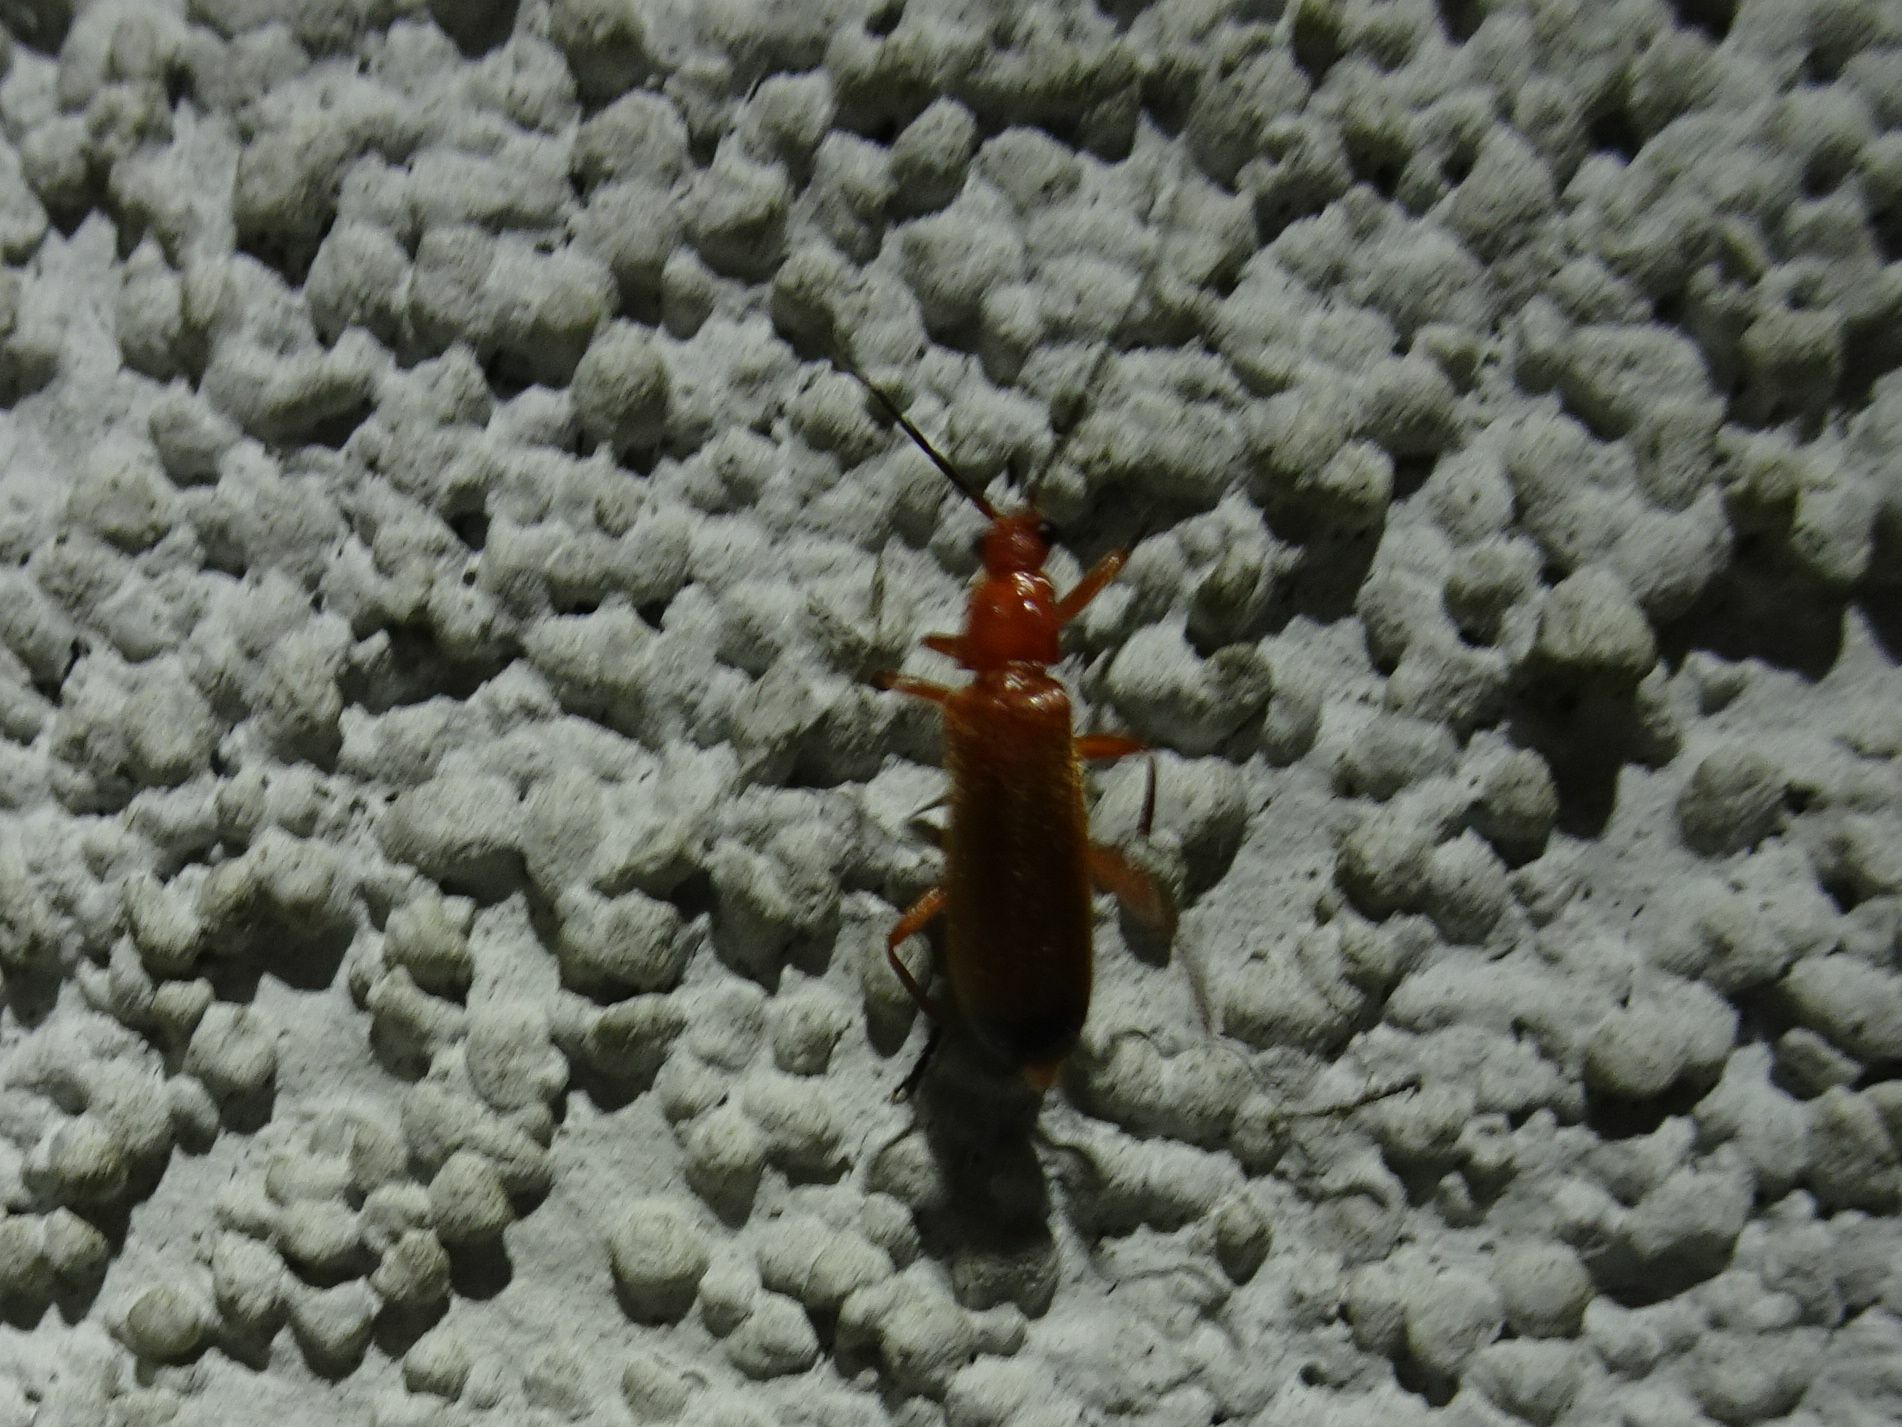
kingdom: Animalia
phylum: Arthropoda
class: Insecta
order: Coleoptera
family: Cantharidae
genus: Rhagonycha
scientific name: Rhagonycha fulva
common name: Common red soldier beetle
